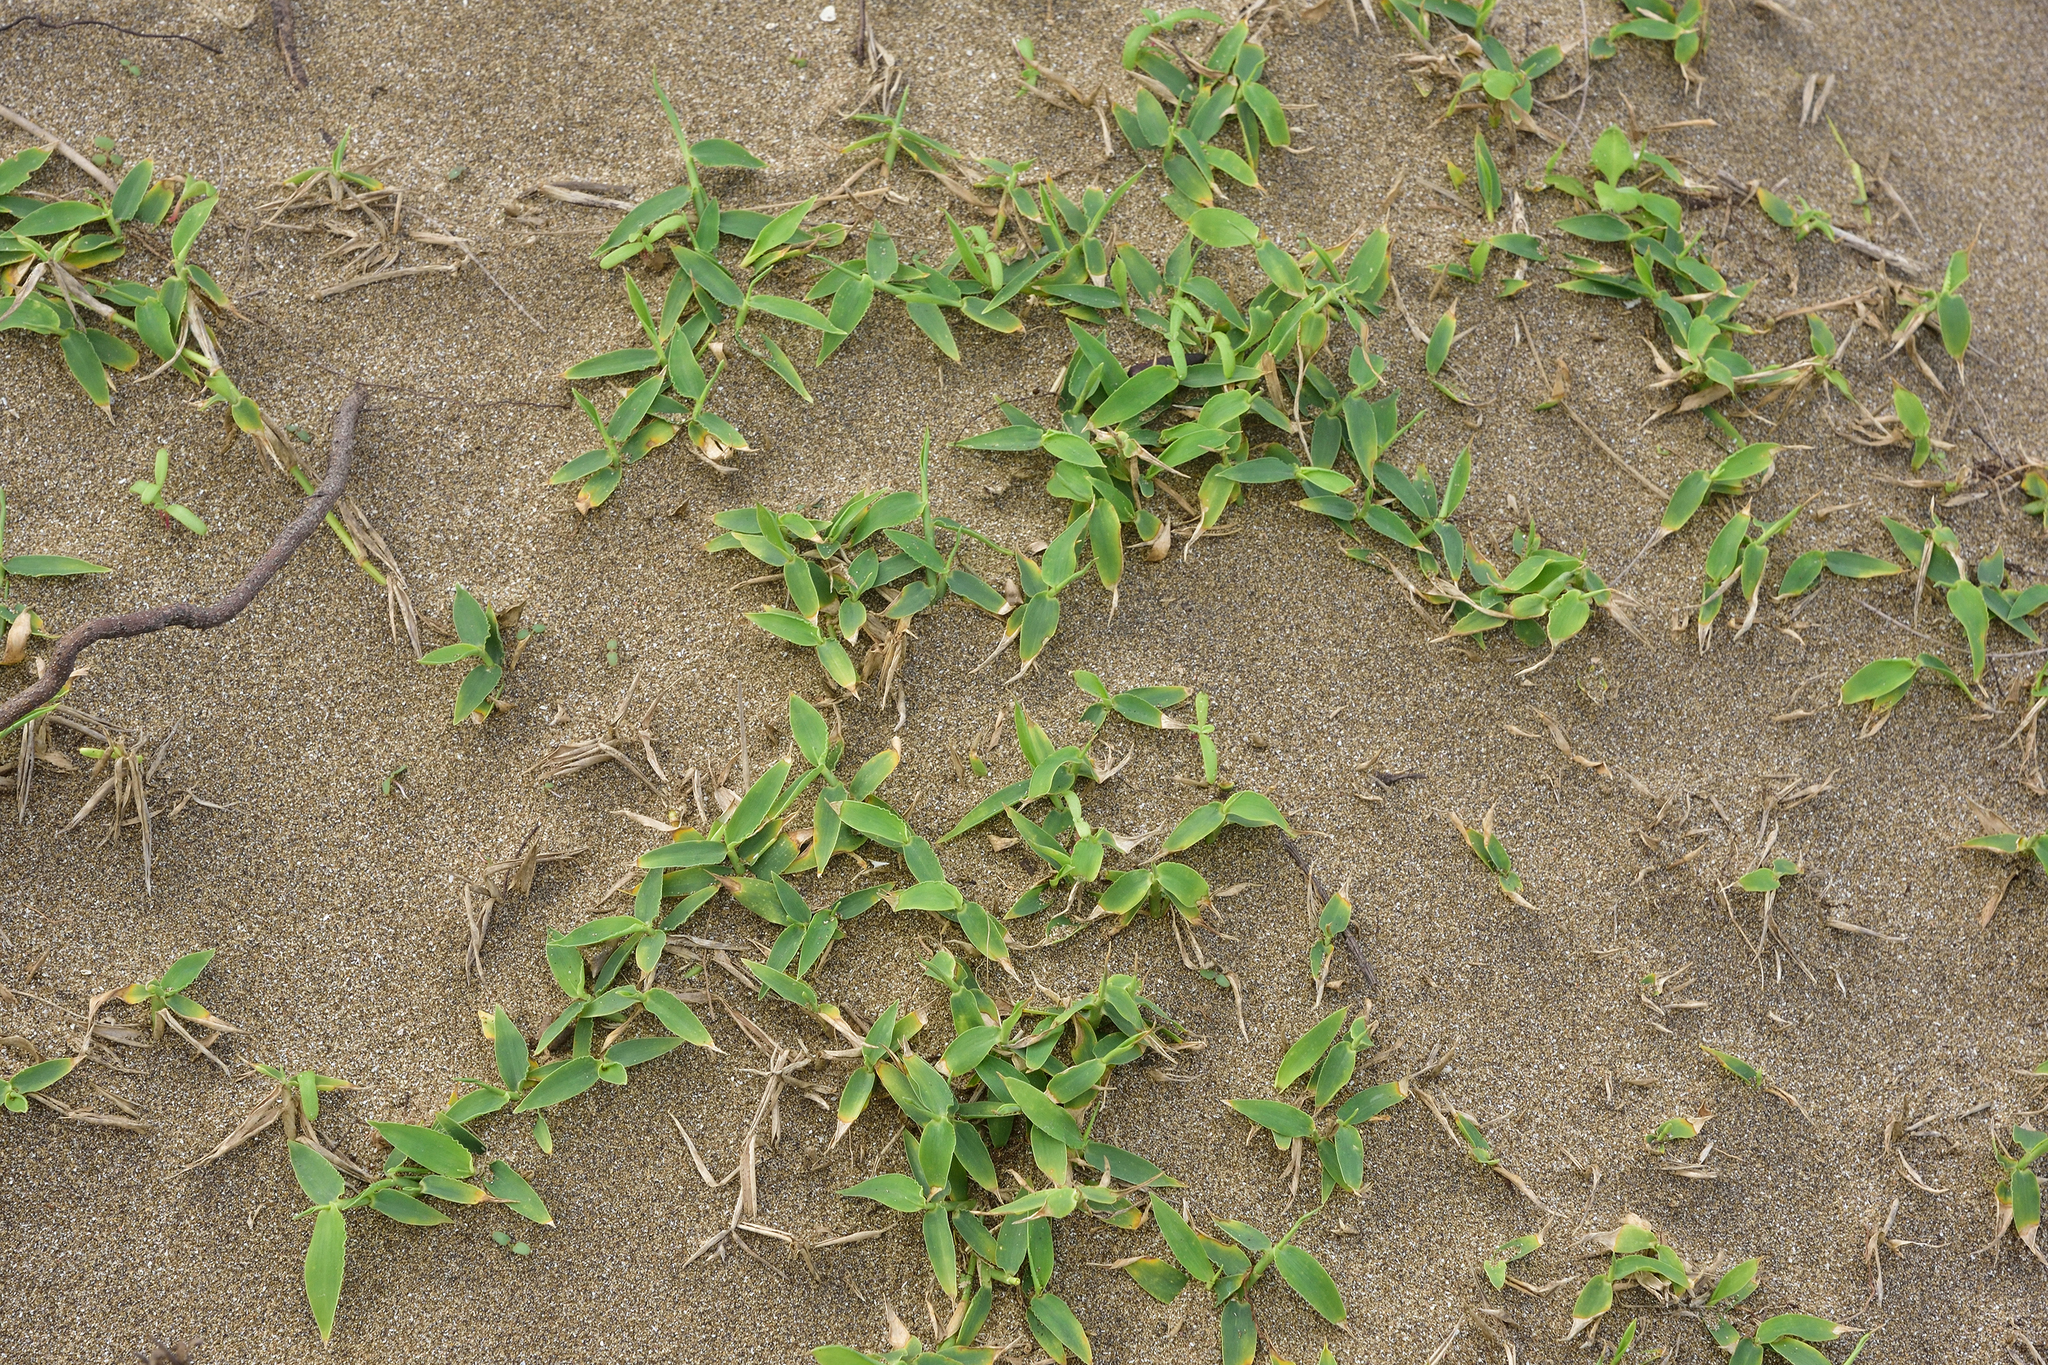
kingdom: Plantae
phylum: Tracheophyta
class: Liliopsida
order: Poales
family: Poaceae
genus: Thuarea
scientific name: Thuarea involuta
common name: Tropical beach grass
